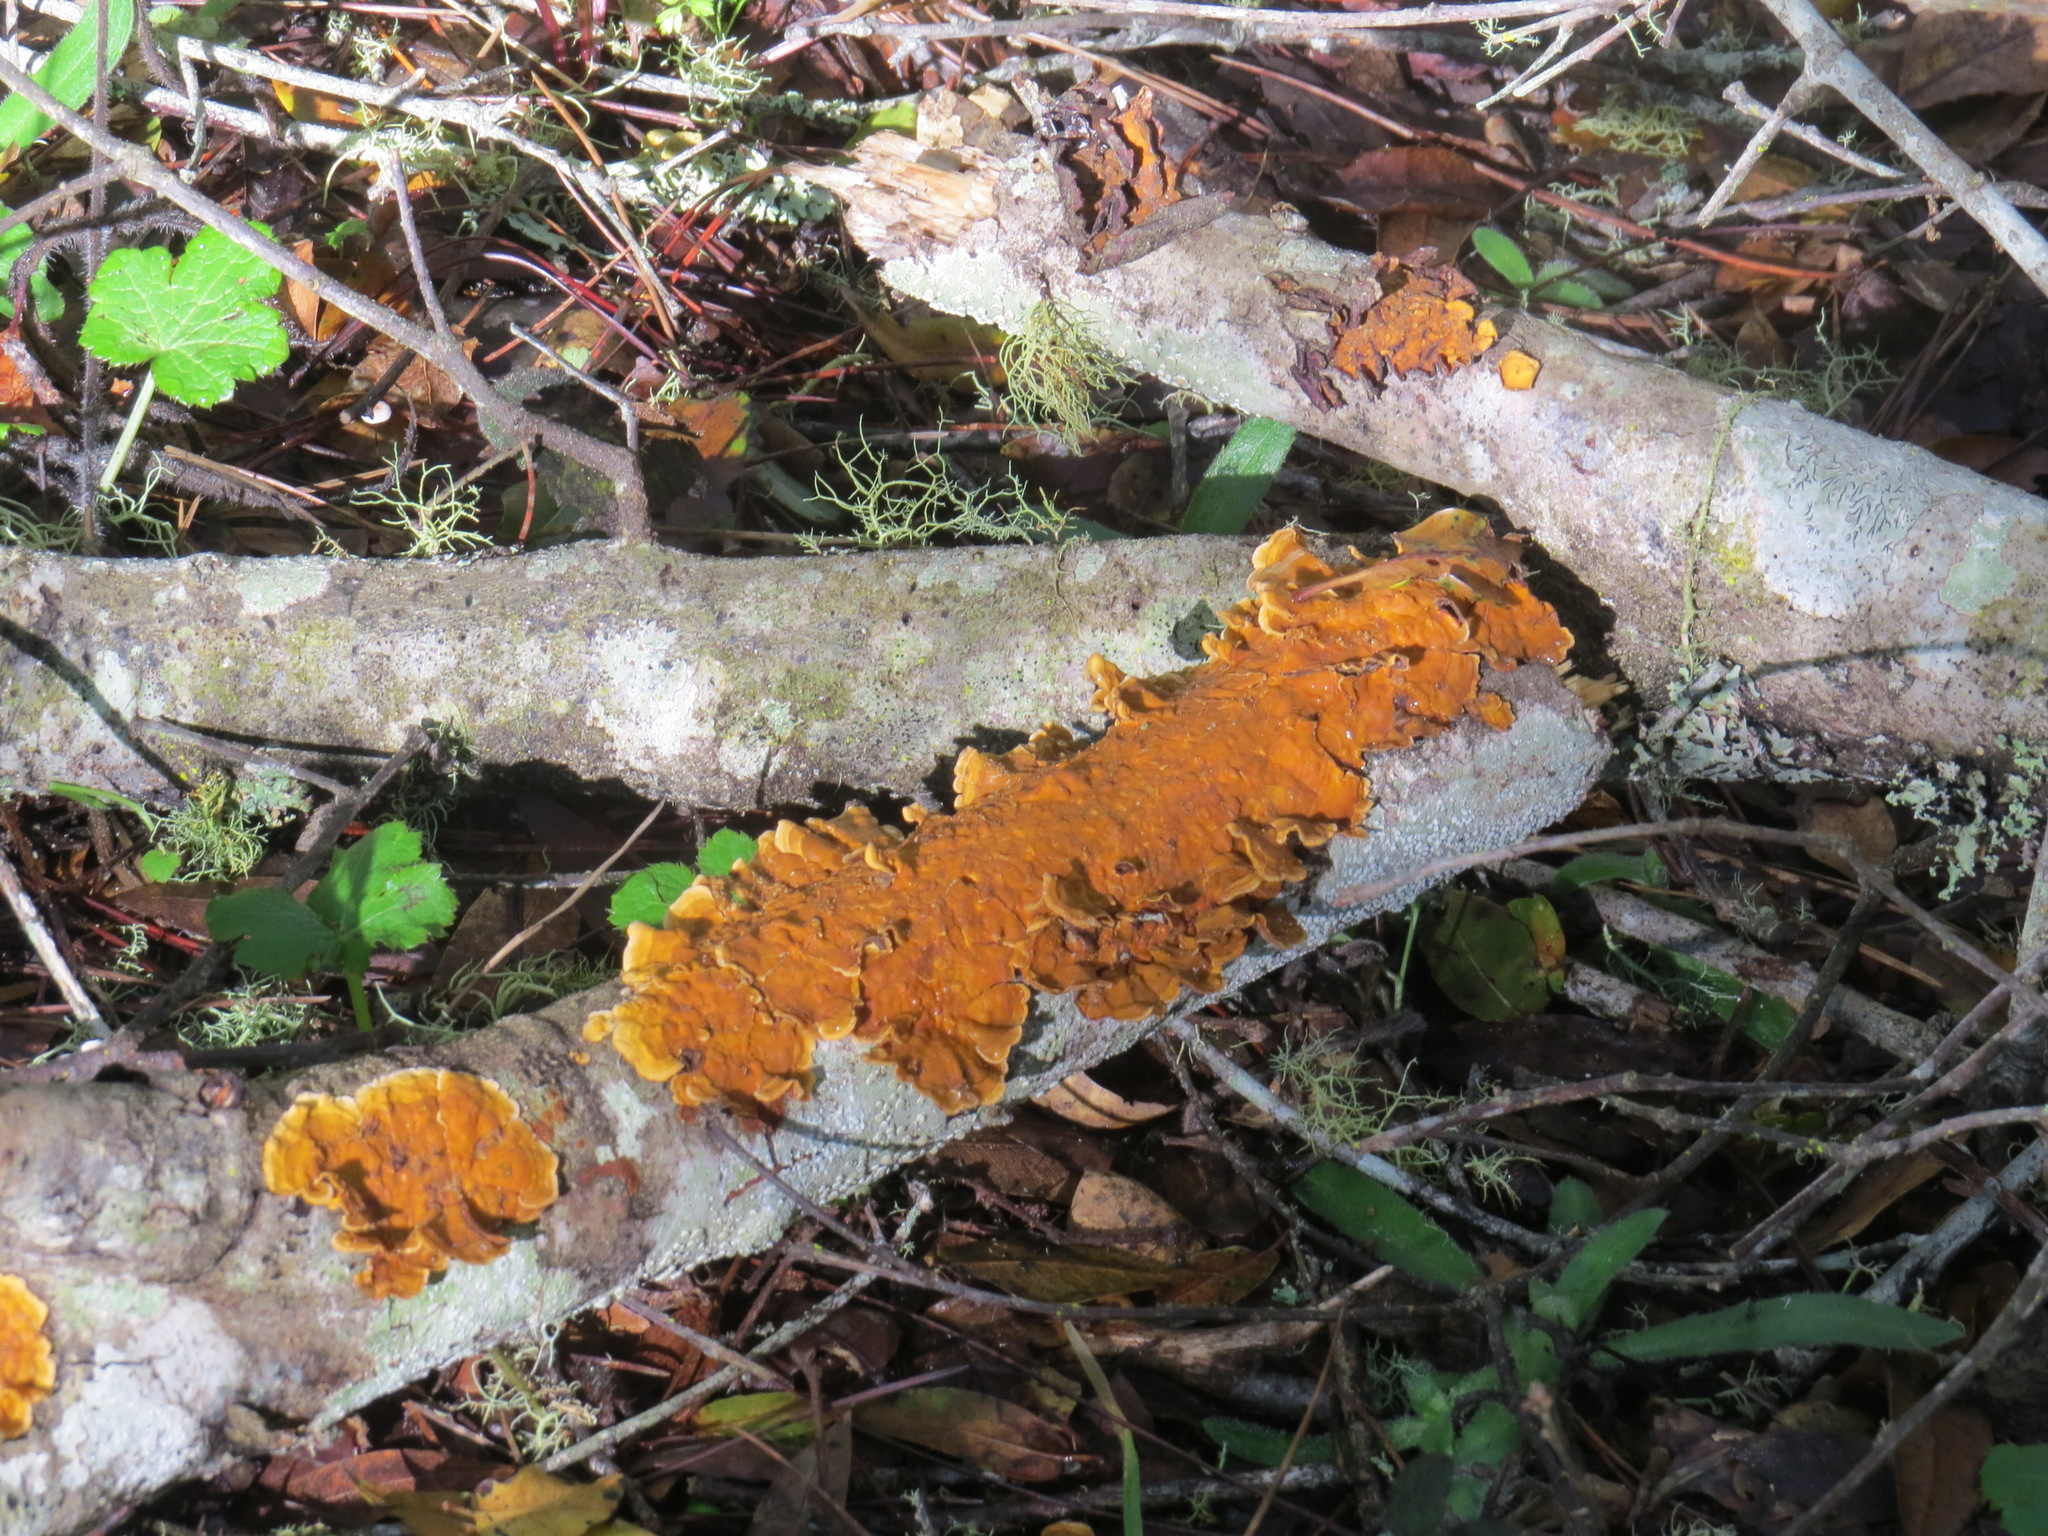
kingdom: Fungi
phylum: Basidiomycota
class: Agaricomycetes
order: Russulales
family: Stereaceae
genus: Stereum
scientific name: Stereum hirsutum
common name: Hairy curtain crust
